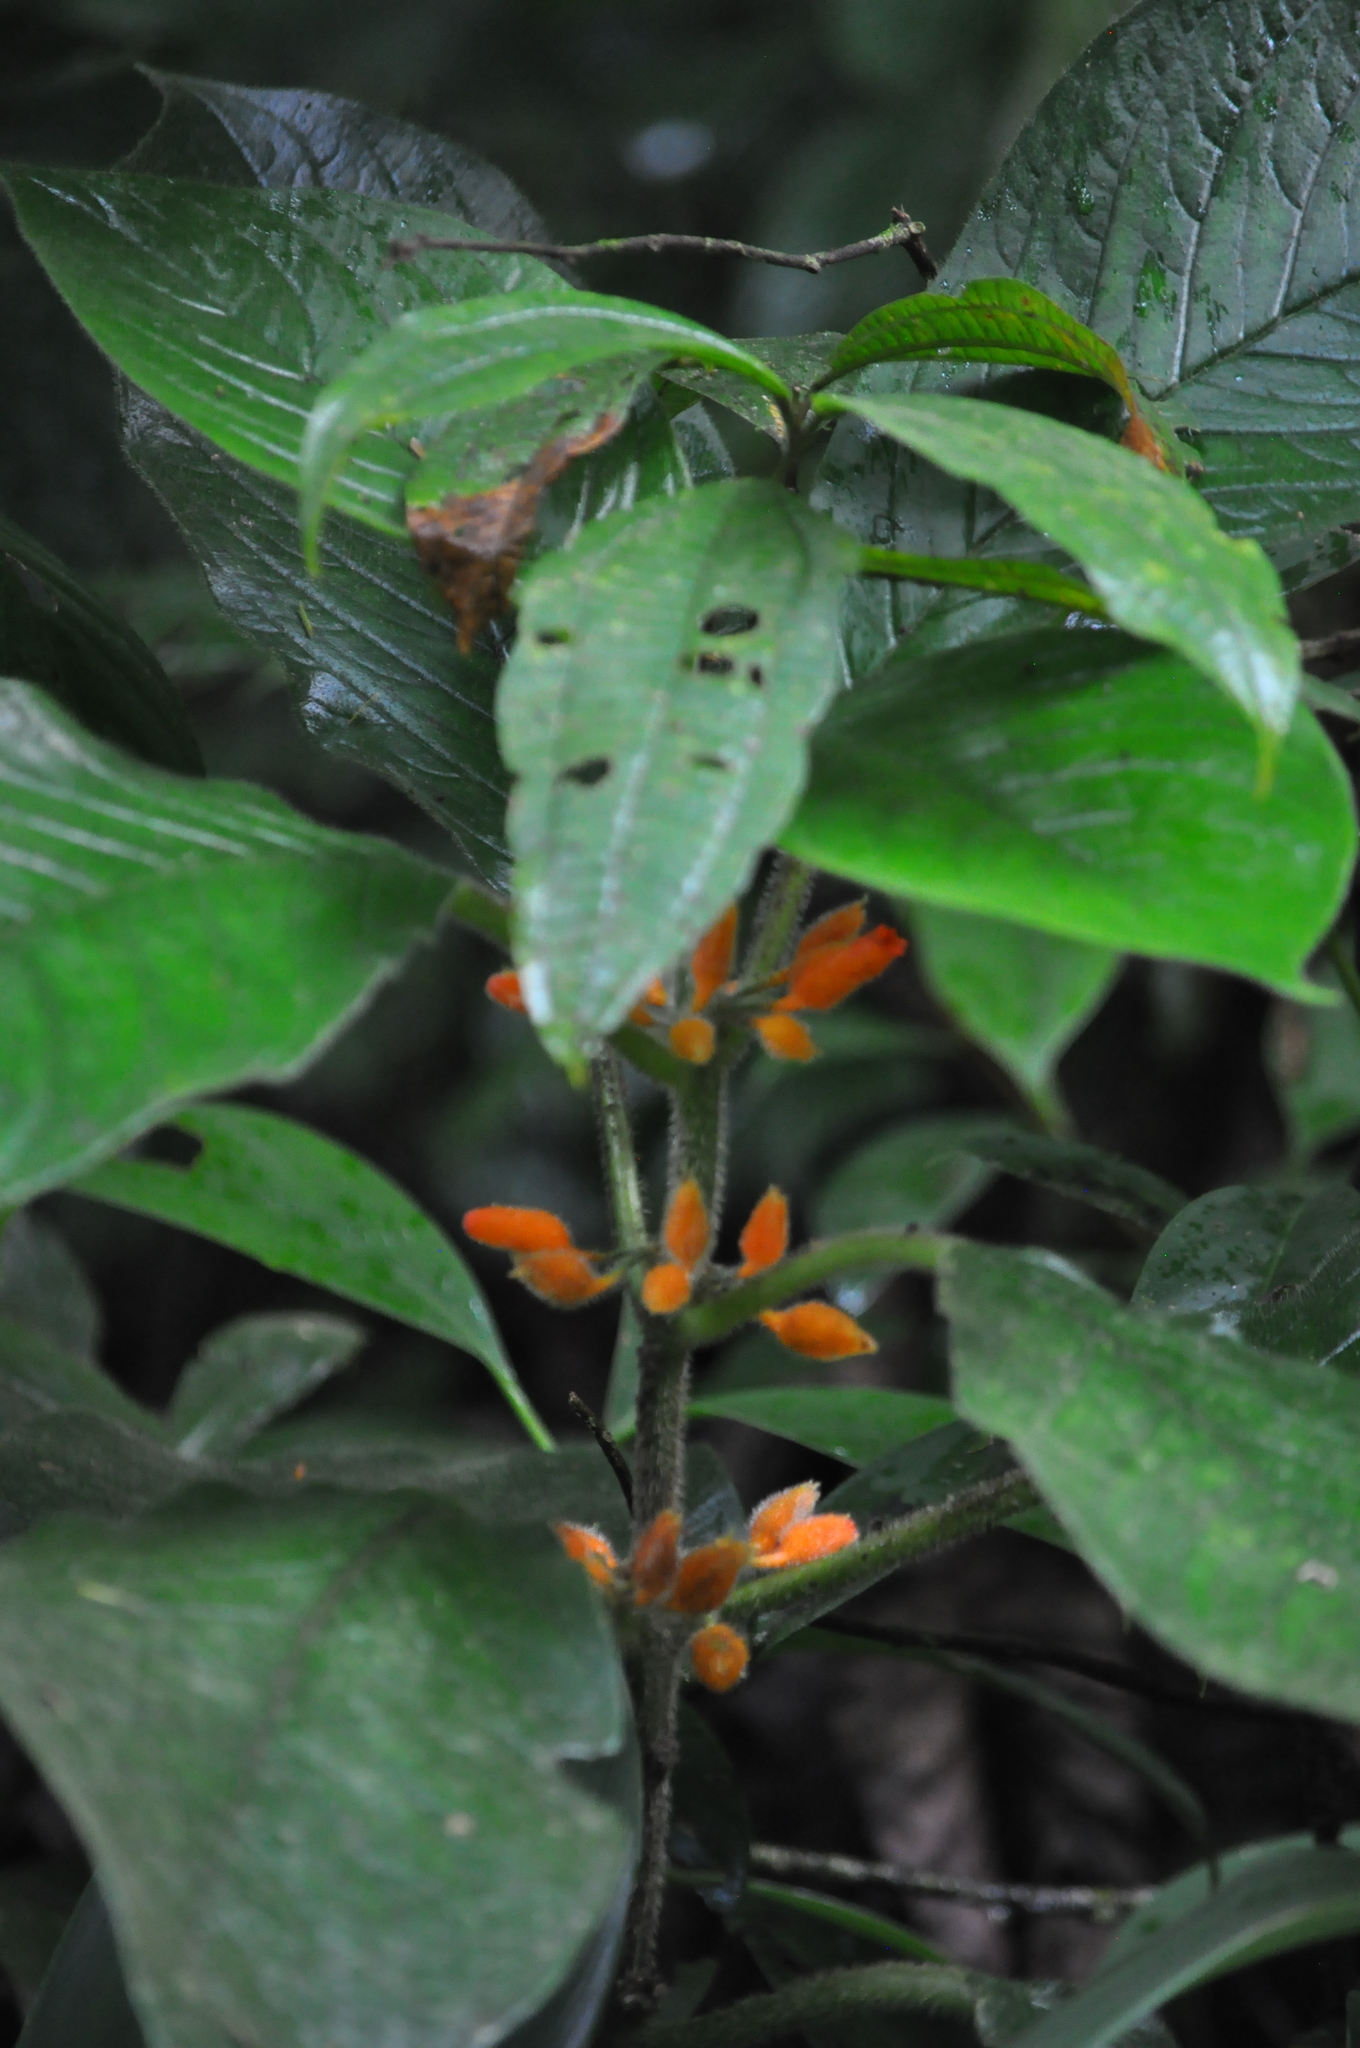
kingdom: Plantae
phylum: Tracheophyta
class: Magnoliopsida
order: Lamiales
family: Gesneriaceae
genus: Besleria
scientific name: Besleria columneoides
